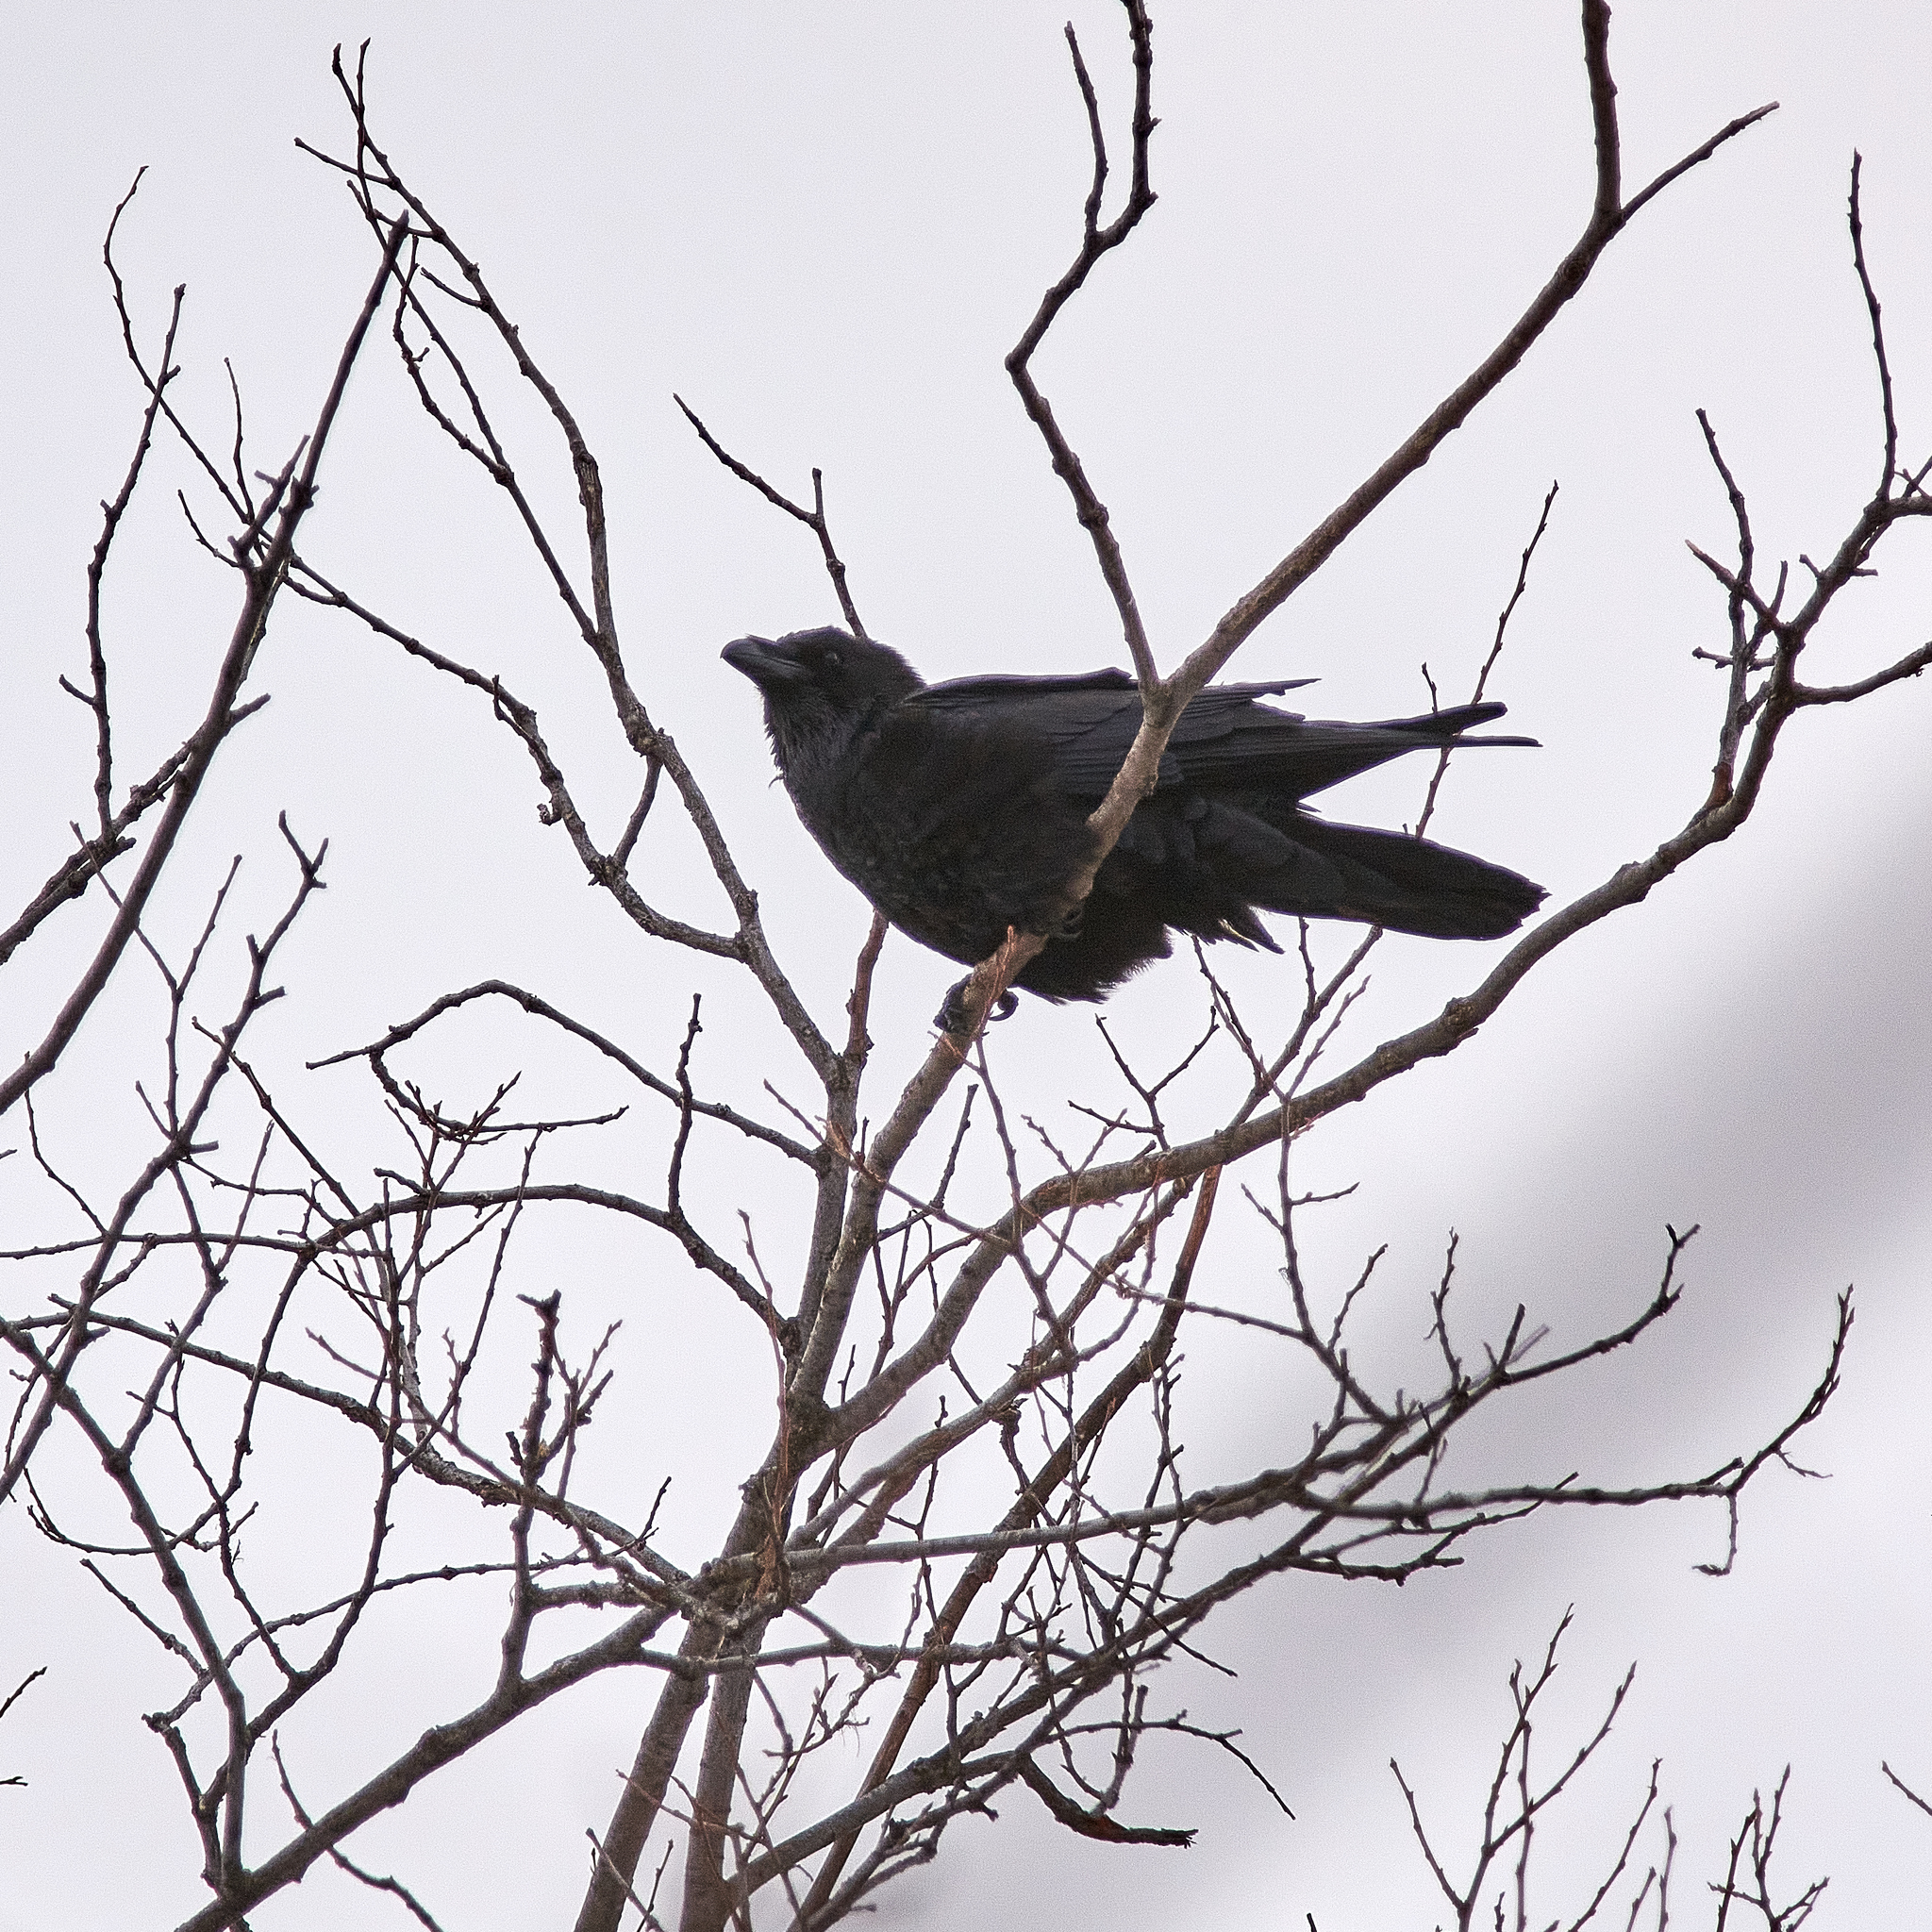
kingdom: Animalia
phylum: Chordata
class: Aves
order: Passeriformes
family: Corvidae
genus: Corvus
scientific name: Corvus corax
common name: Common raven
